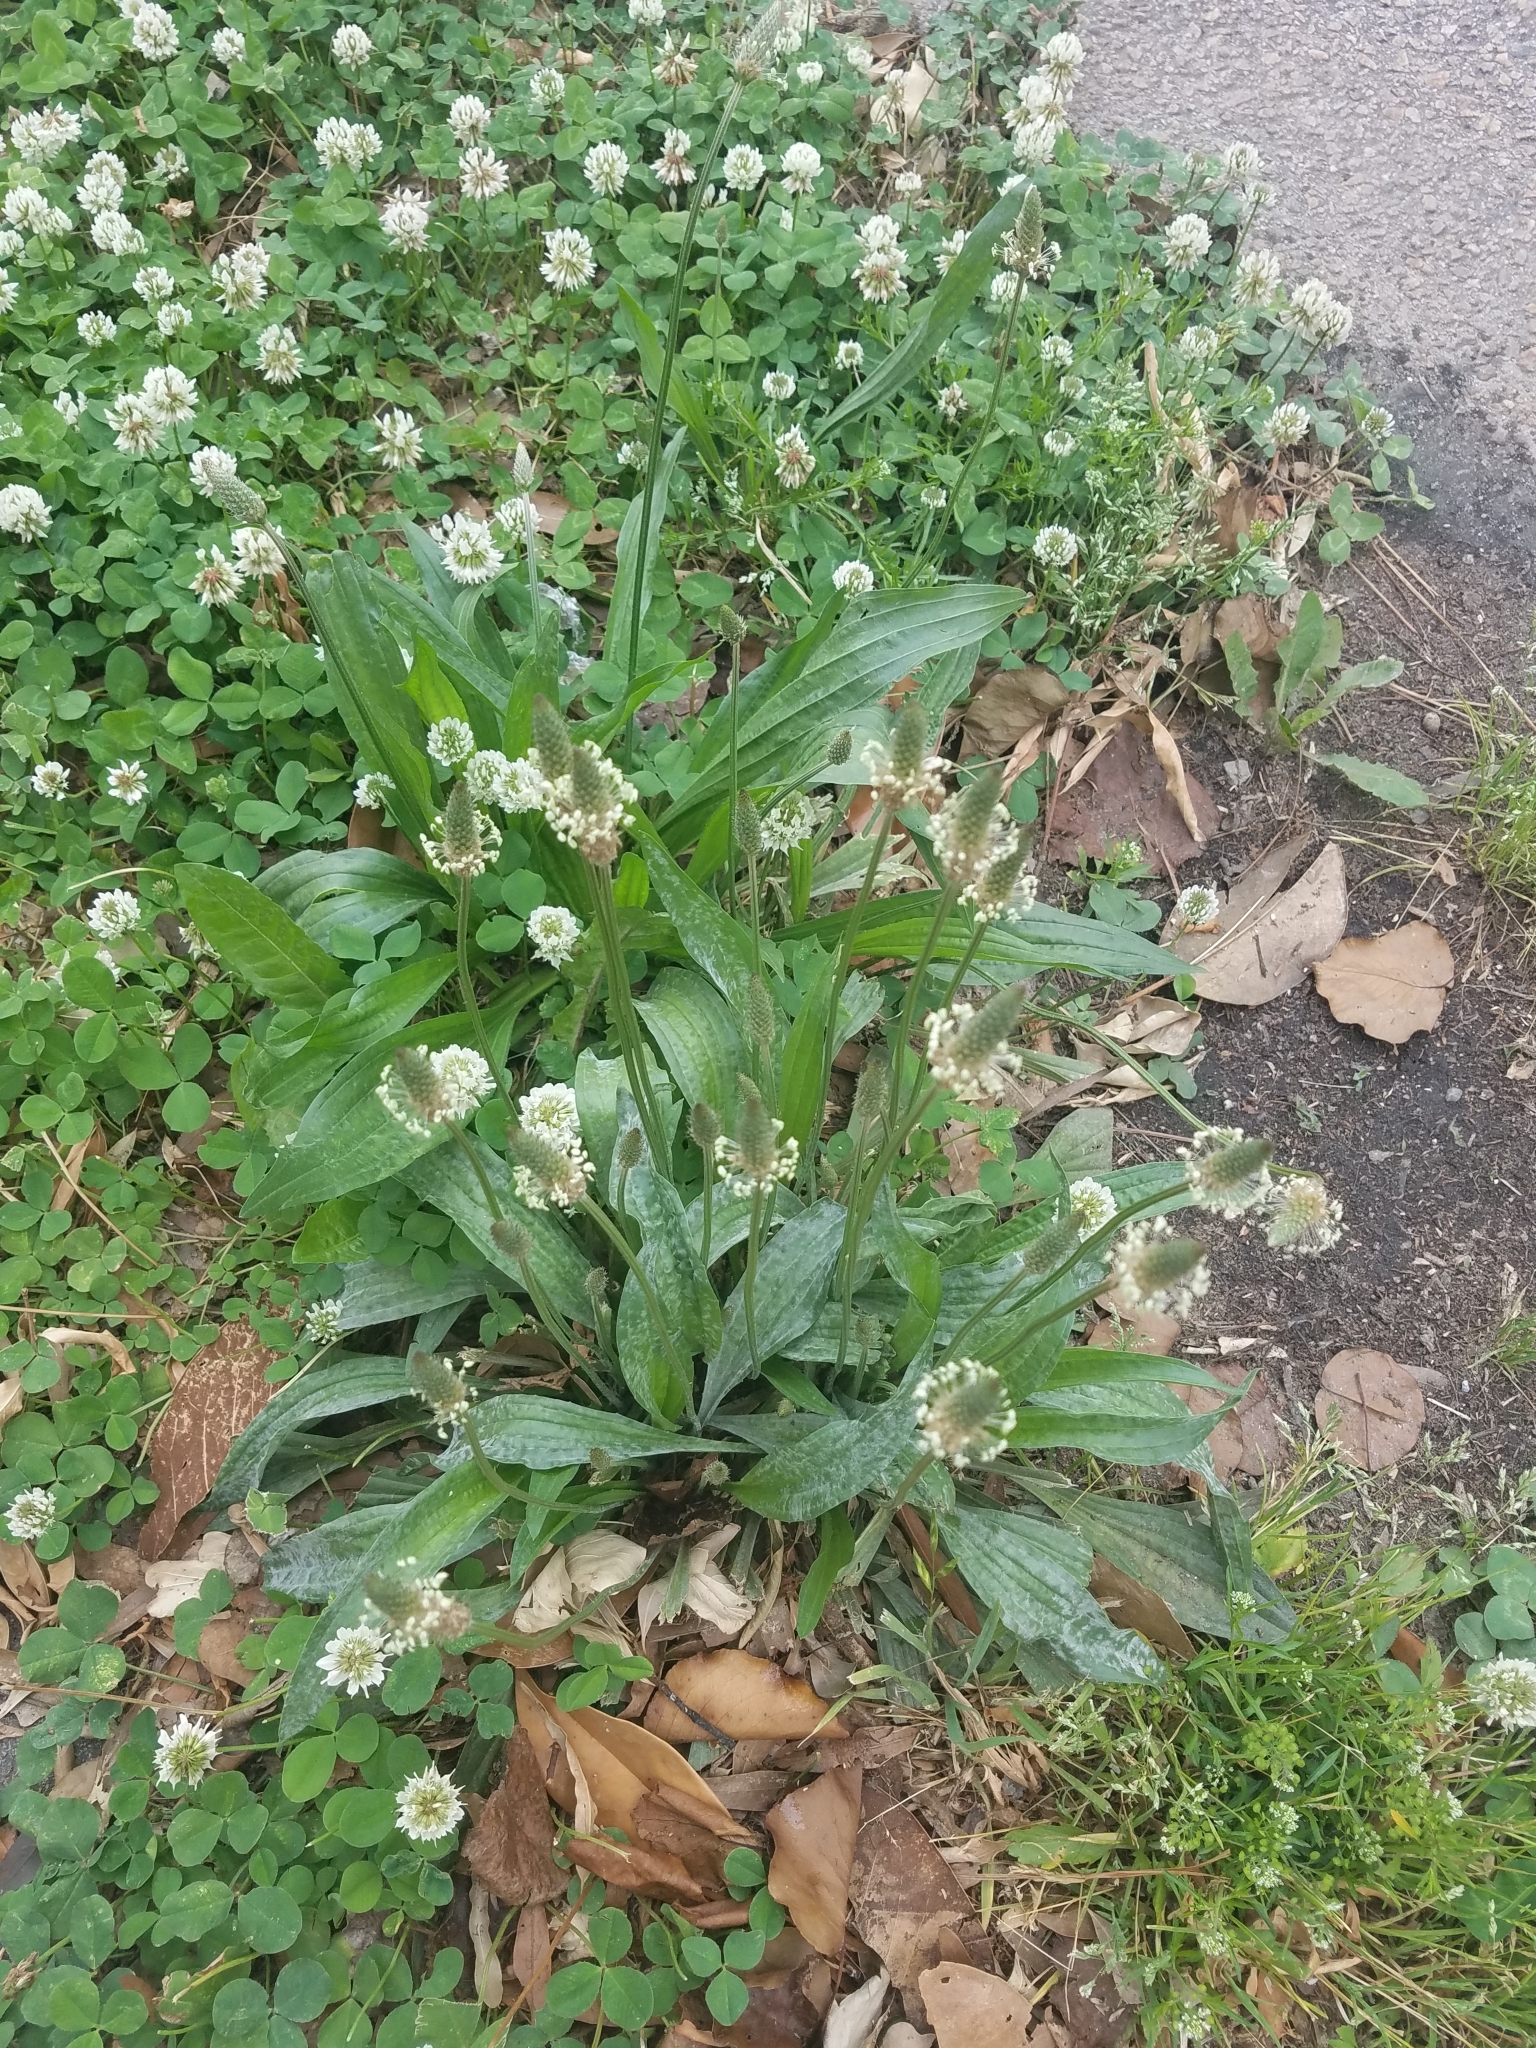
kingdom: Plantae
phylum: Tracheophyta
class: Magnoliopsida
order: Lamiales
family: Plantaginaceae
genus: Plantago
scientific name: Plantago lanceolata
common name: Ribwort plantain
